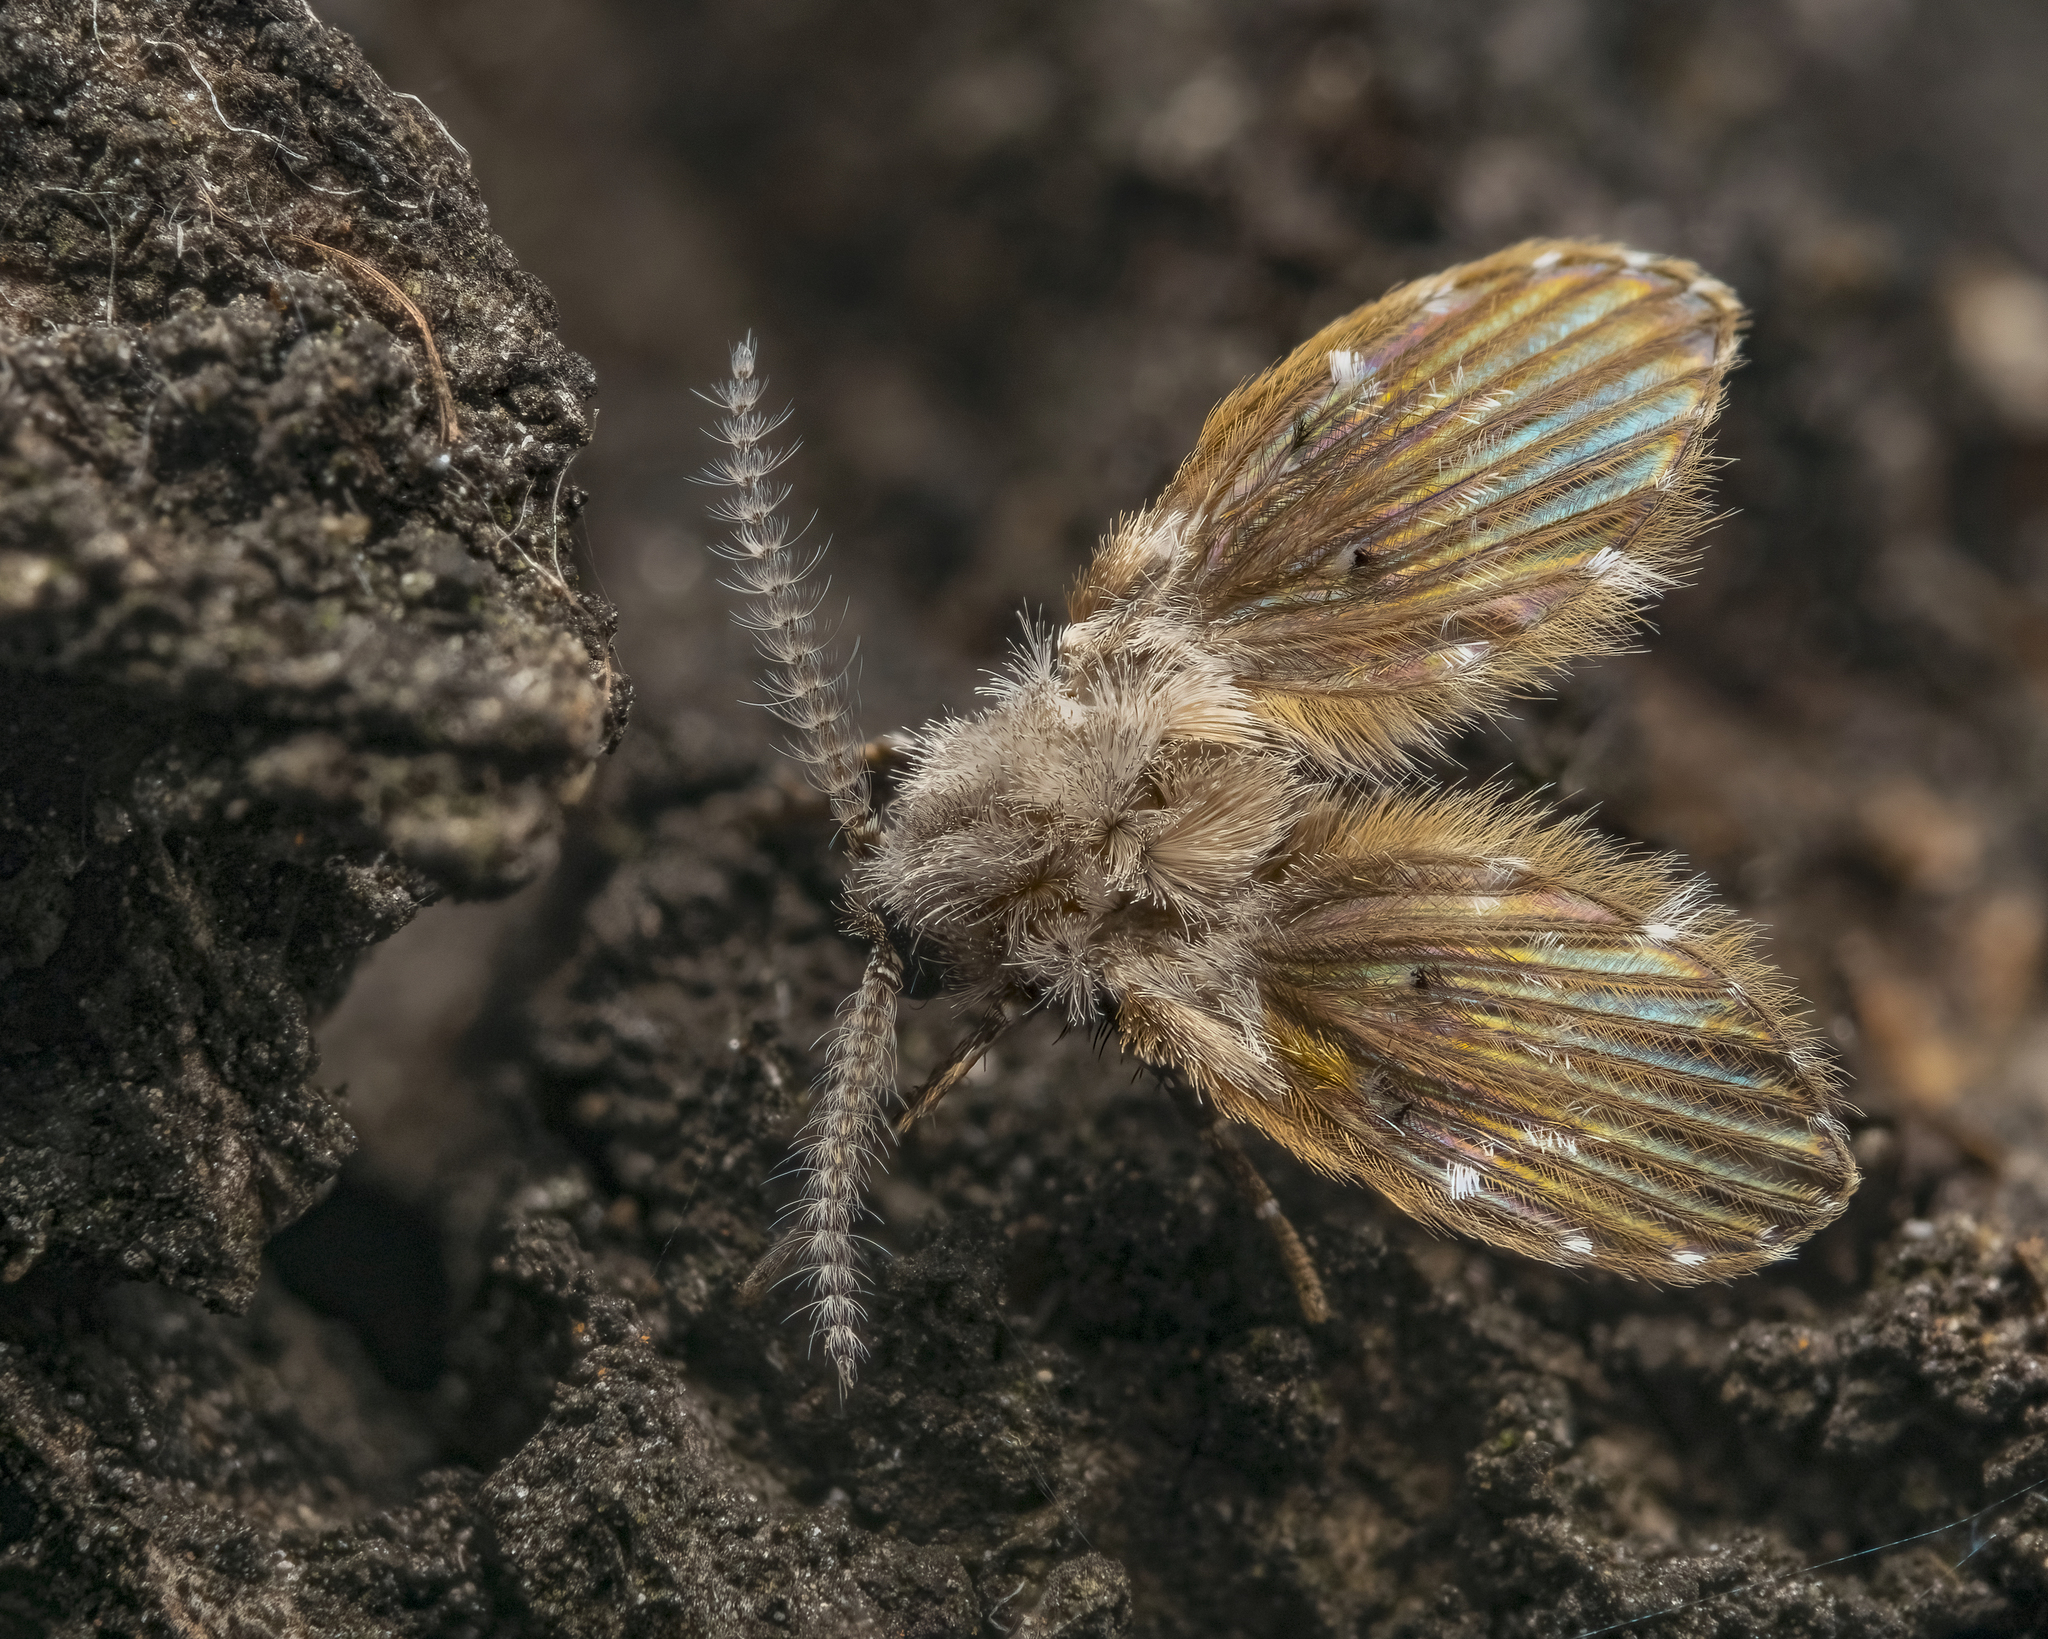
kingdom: Animalia
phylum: Arthropoda
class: Insecta
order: Diptera
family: Psychodidae
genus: Clogmia
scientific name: Clogmia albipunctatus
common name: White-spotted moth fly
